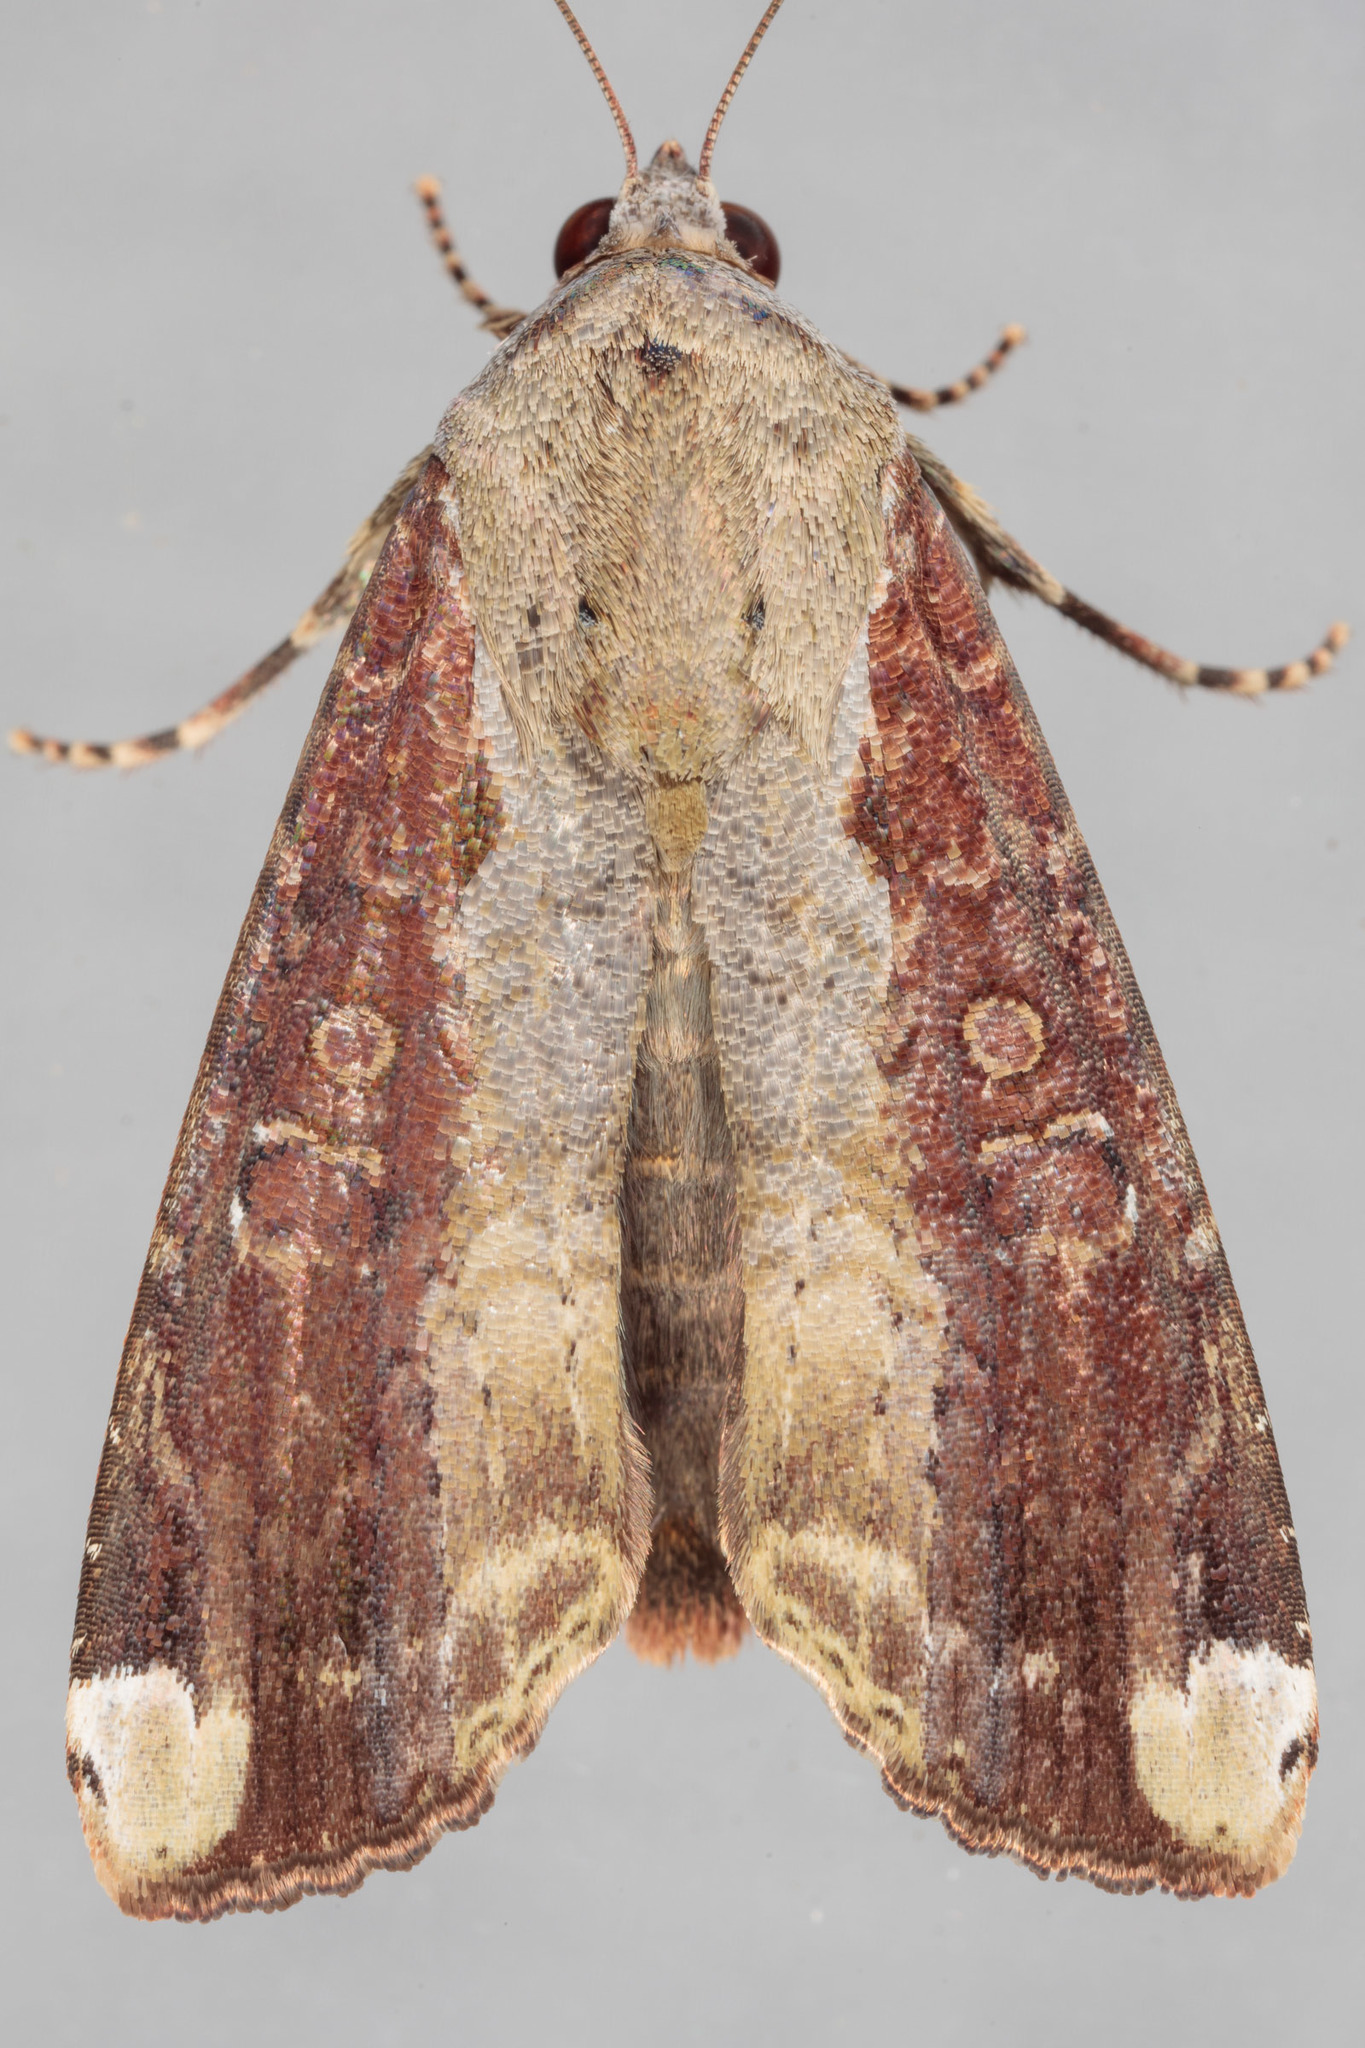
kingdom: Animalia
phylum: Arthropoda
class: Insecta
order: Lepidoptera
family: Noctuidae
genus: Magusa
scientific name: Magusa divaricata
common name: Orb narrow-winged moth
